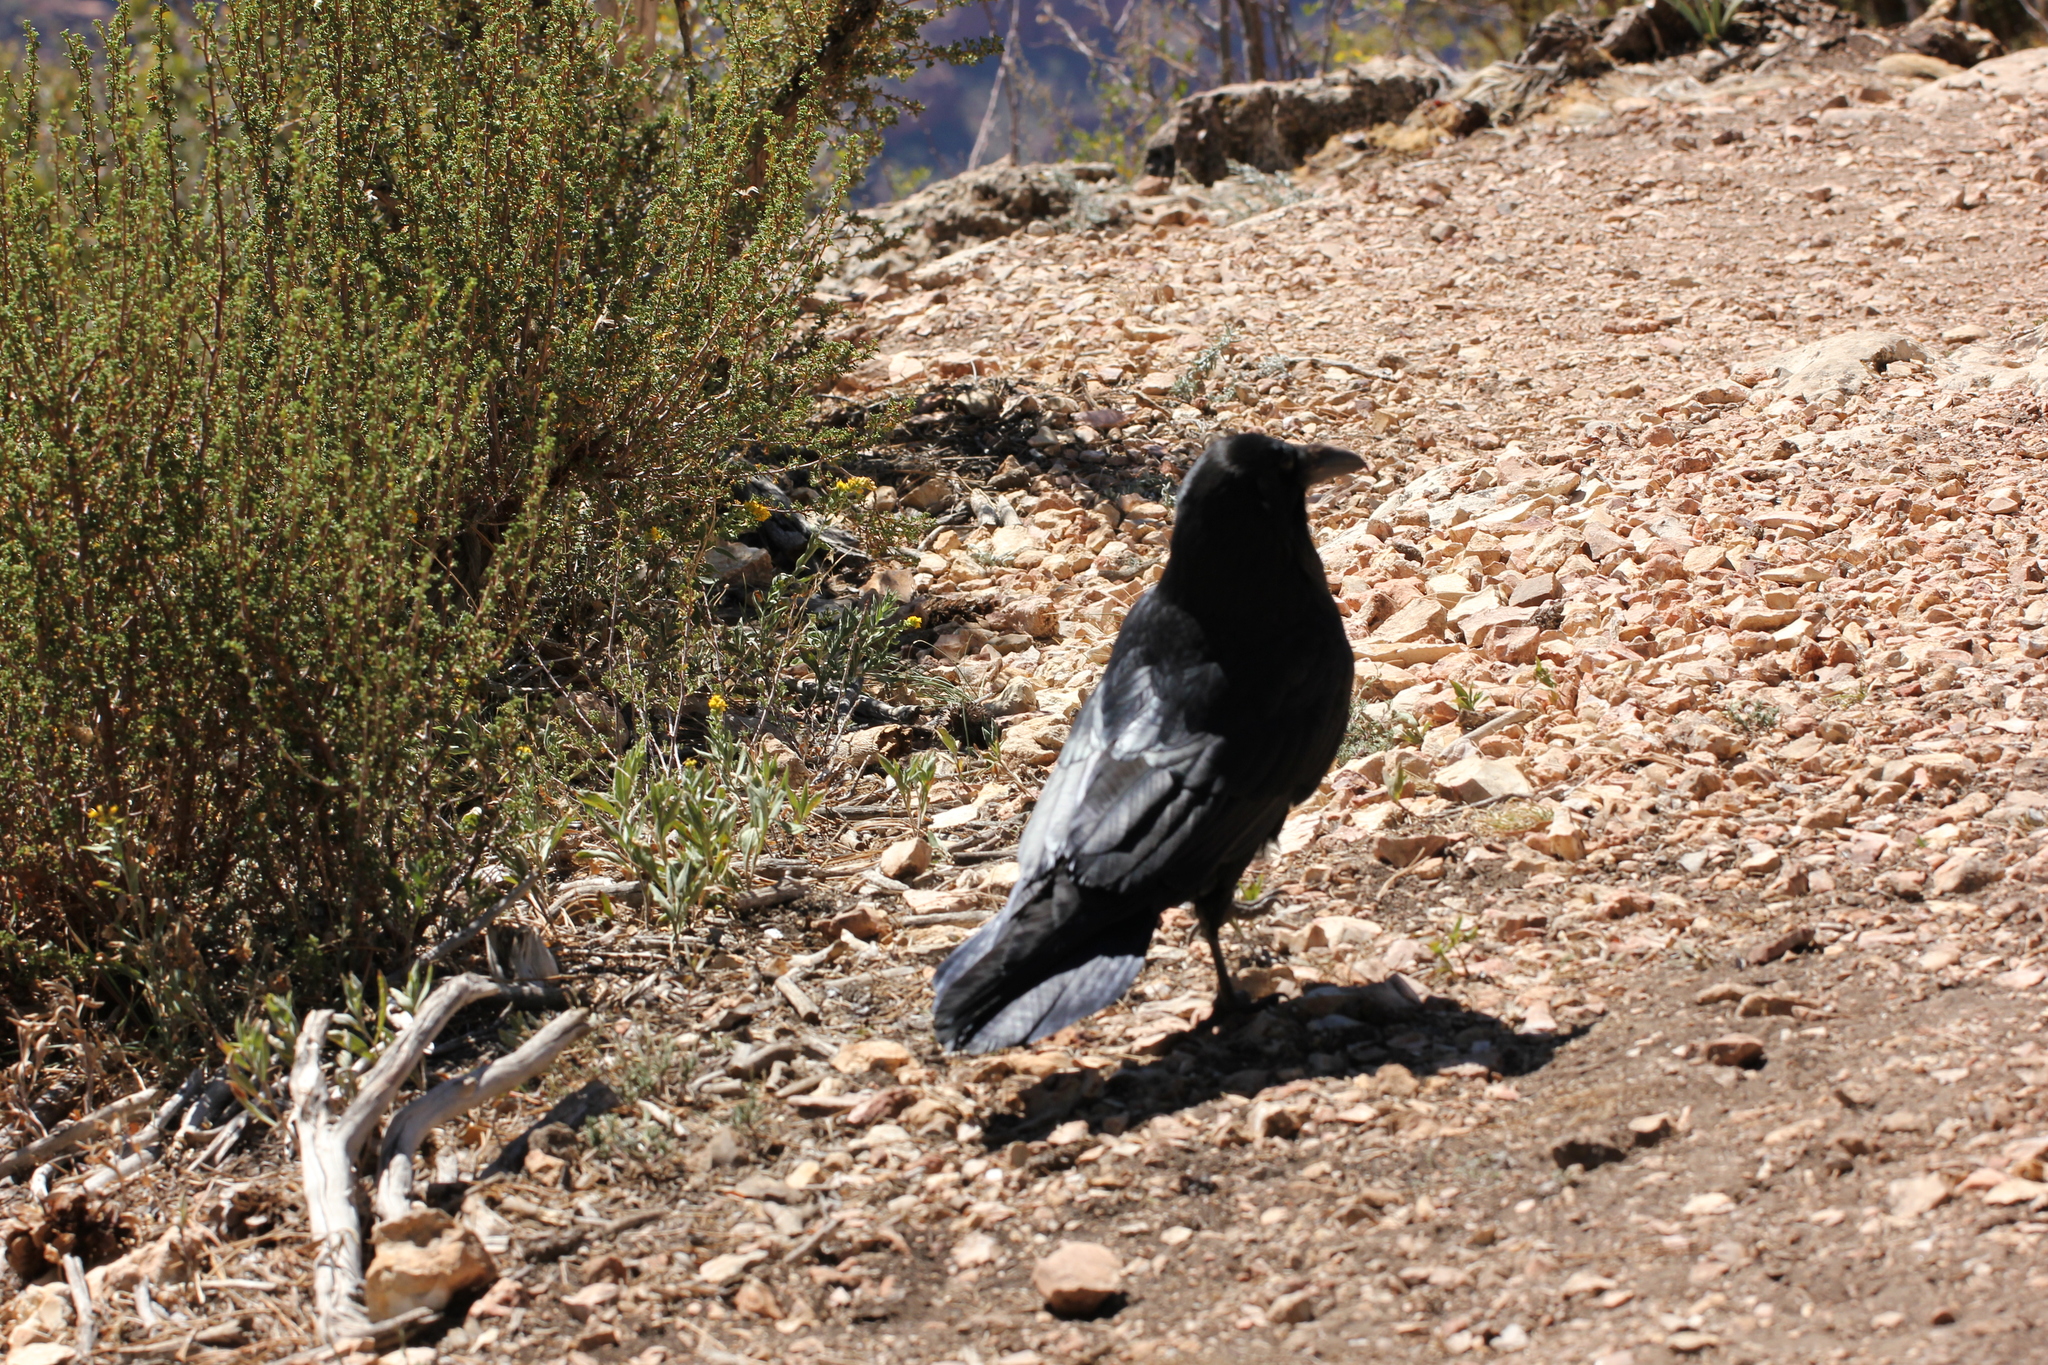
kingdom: Animalia
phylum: Chordata
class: Aves
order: Passeriformes
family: Corvidae
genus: Corvus
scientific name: Corvus corax
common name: Common raven
